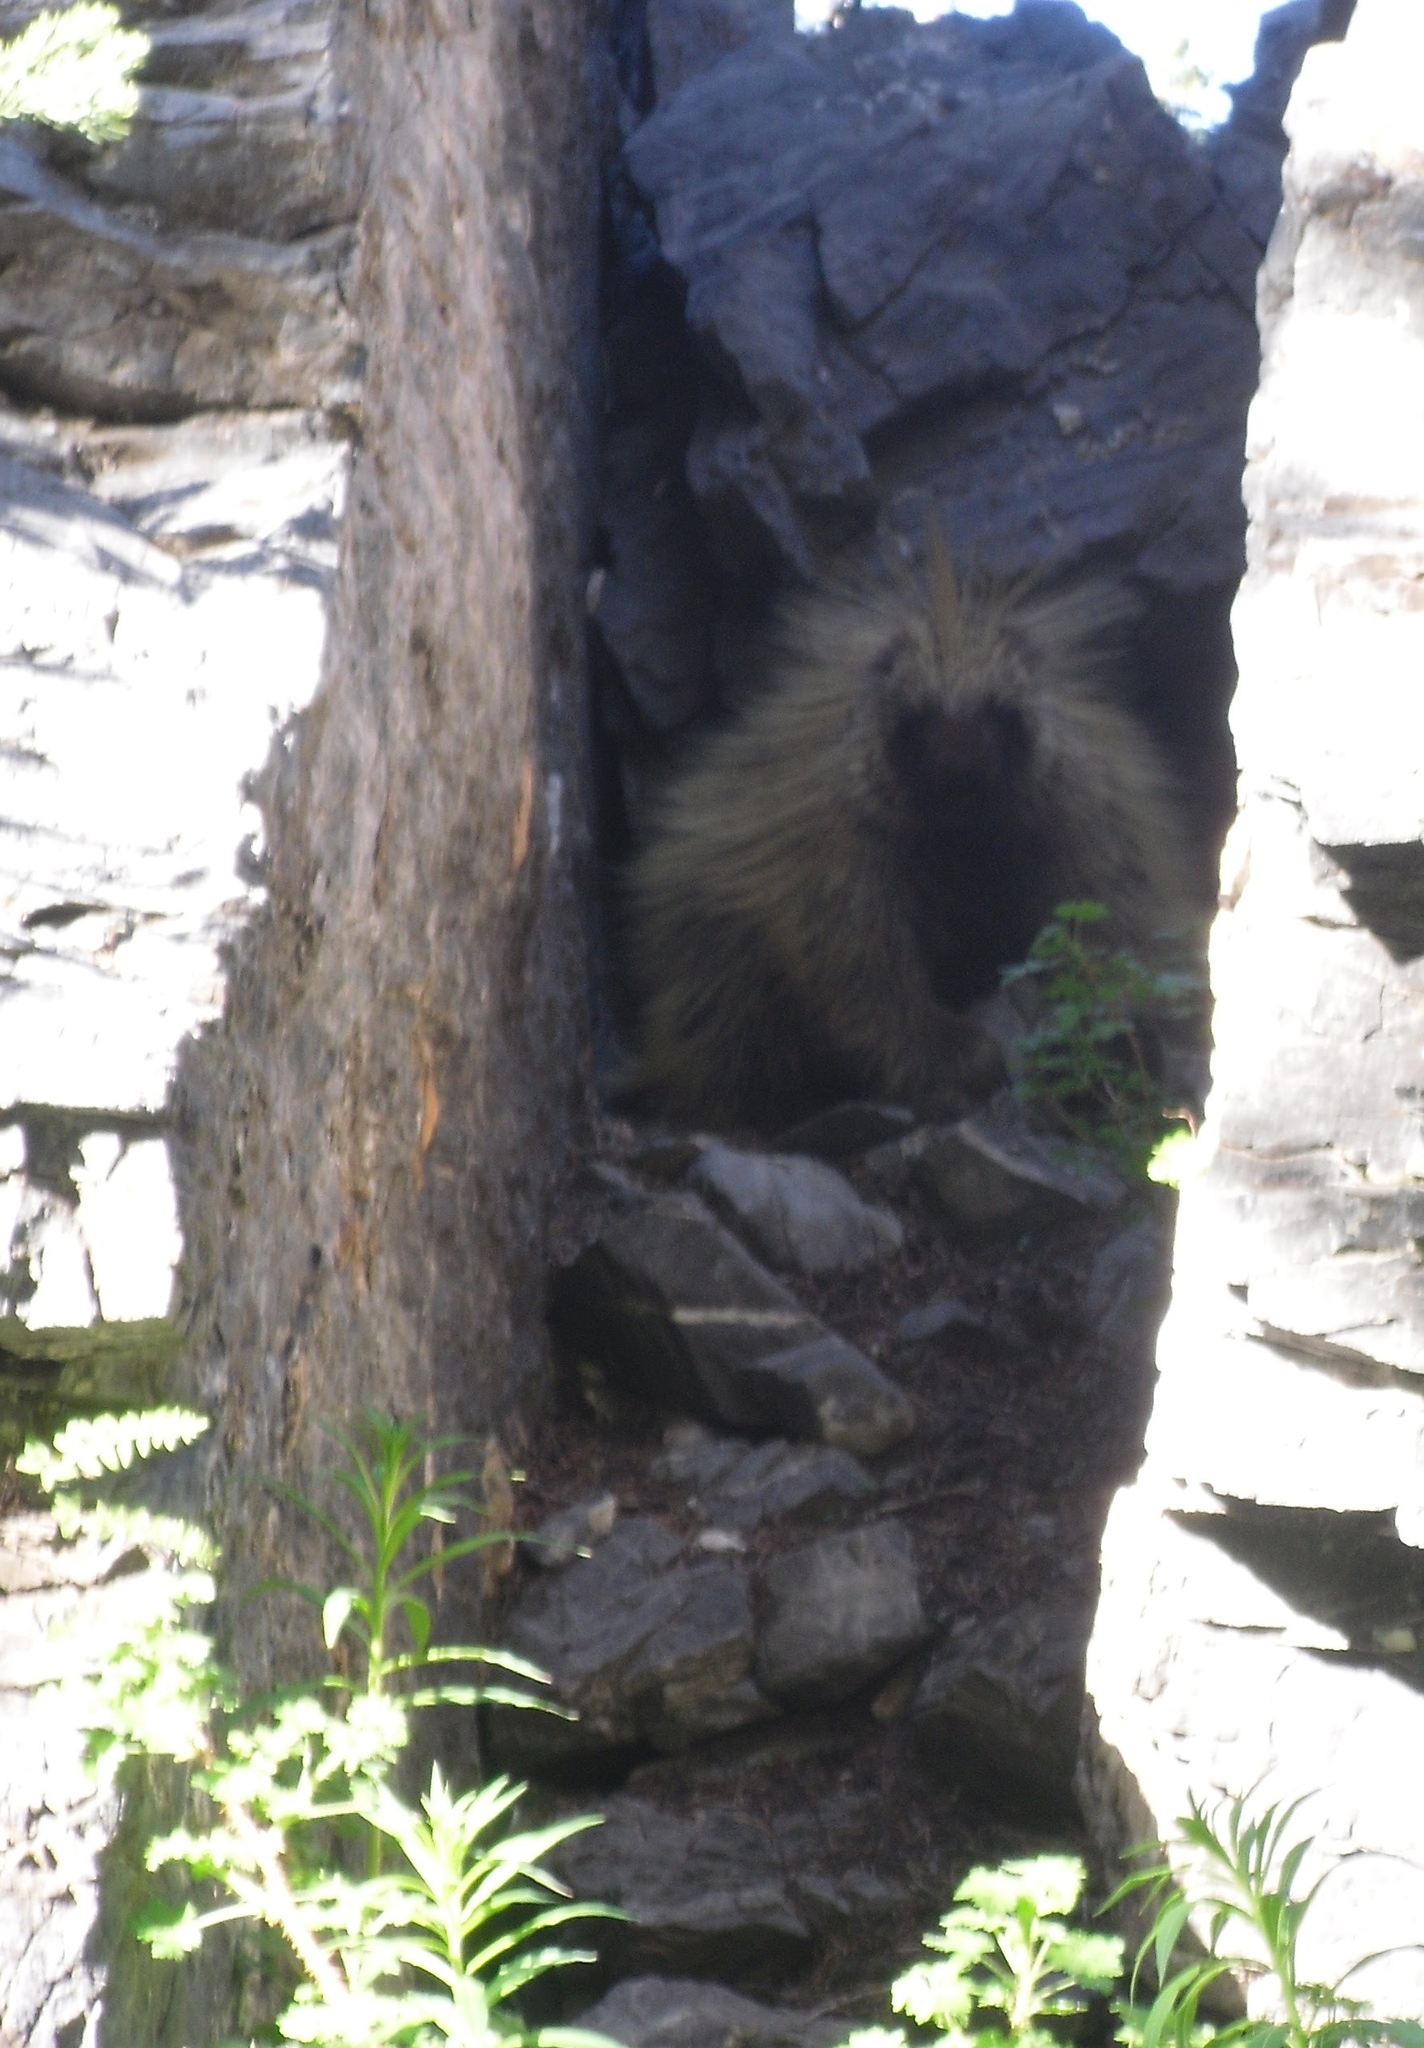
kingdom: Animalia
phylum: Chordata
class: Mammalia
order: Rodentia
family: Erethizontidae
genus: Erethizon
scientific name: Erethizon dorsatus
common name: North american porcupine
